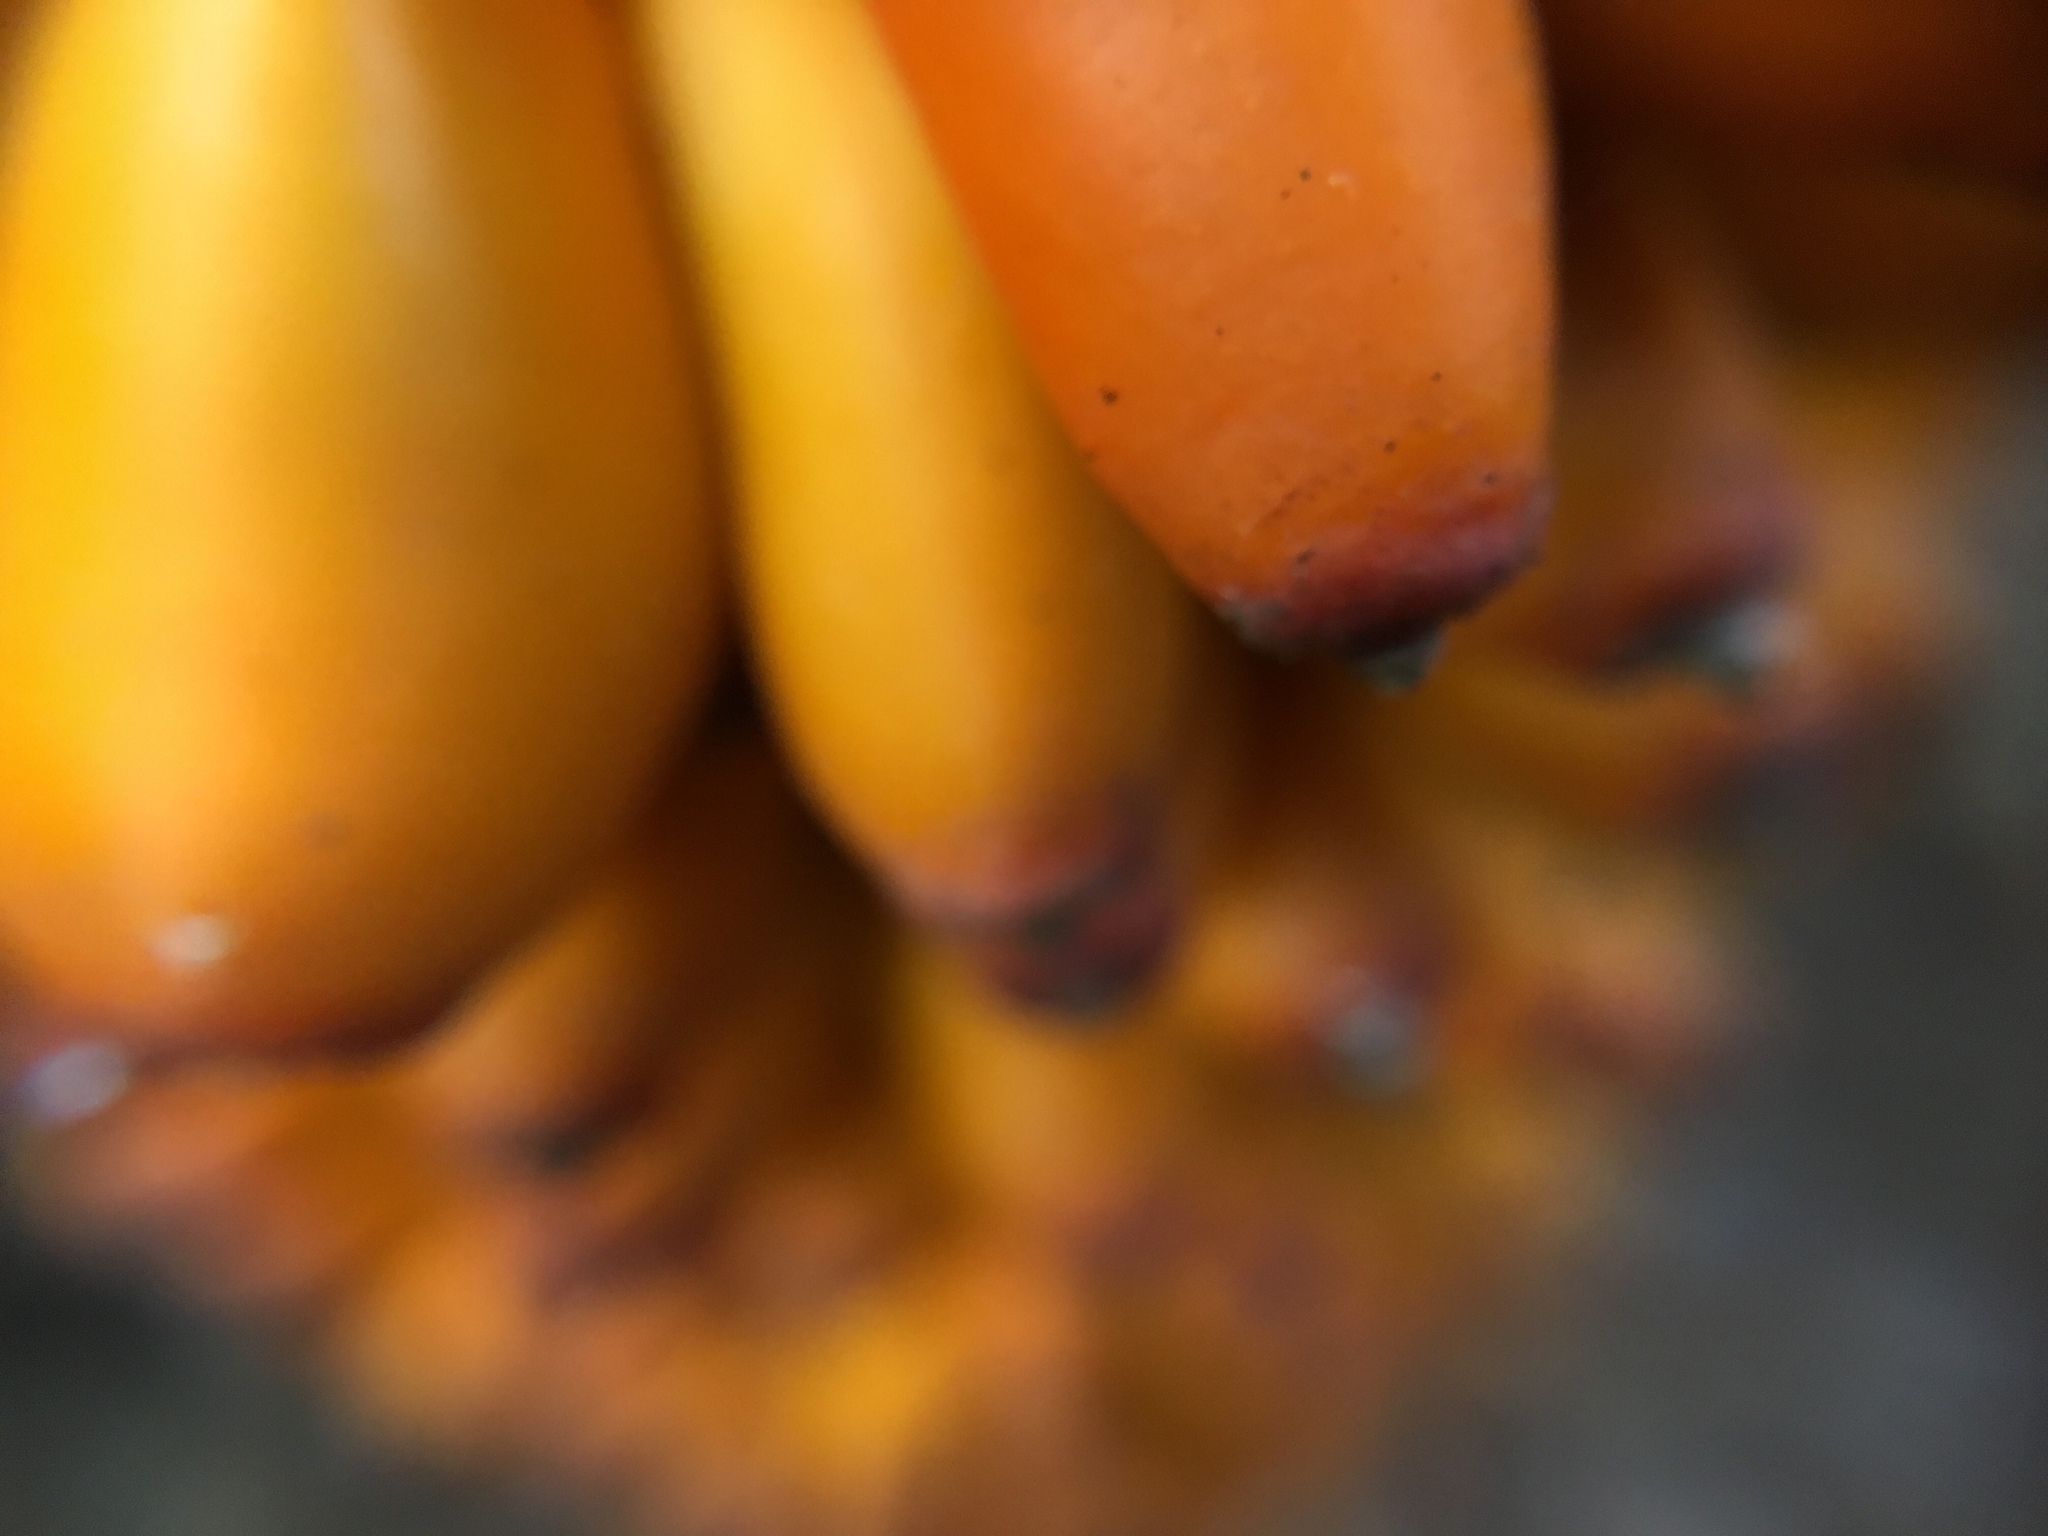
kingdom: Plantae
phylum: Tracheophyta
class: Liliopsida
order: Alismatales
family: Araceae
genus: Amorphophallus
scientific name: Amorphophallus paeoniifolius
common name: Telinga-potato
